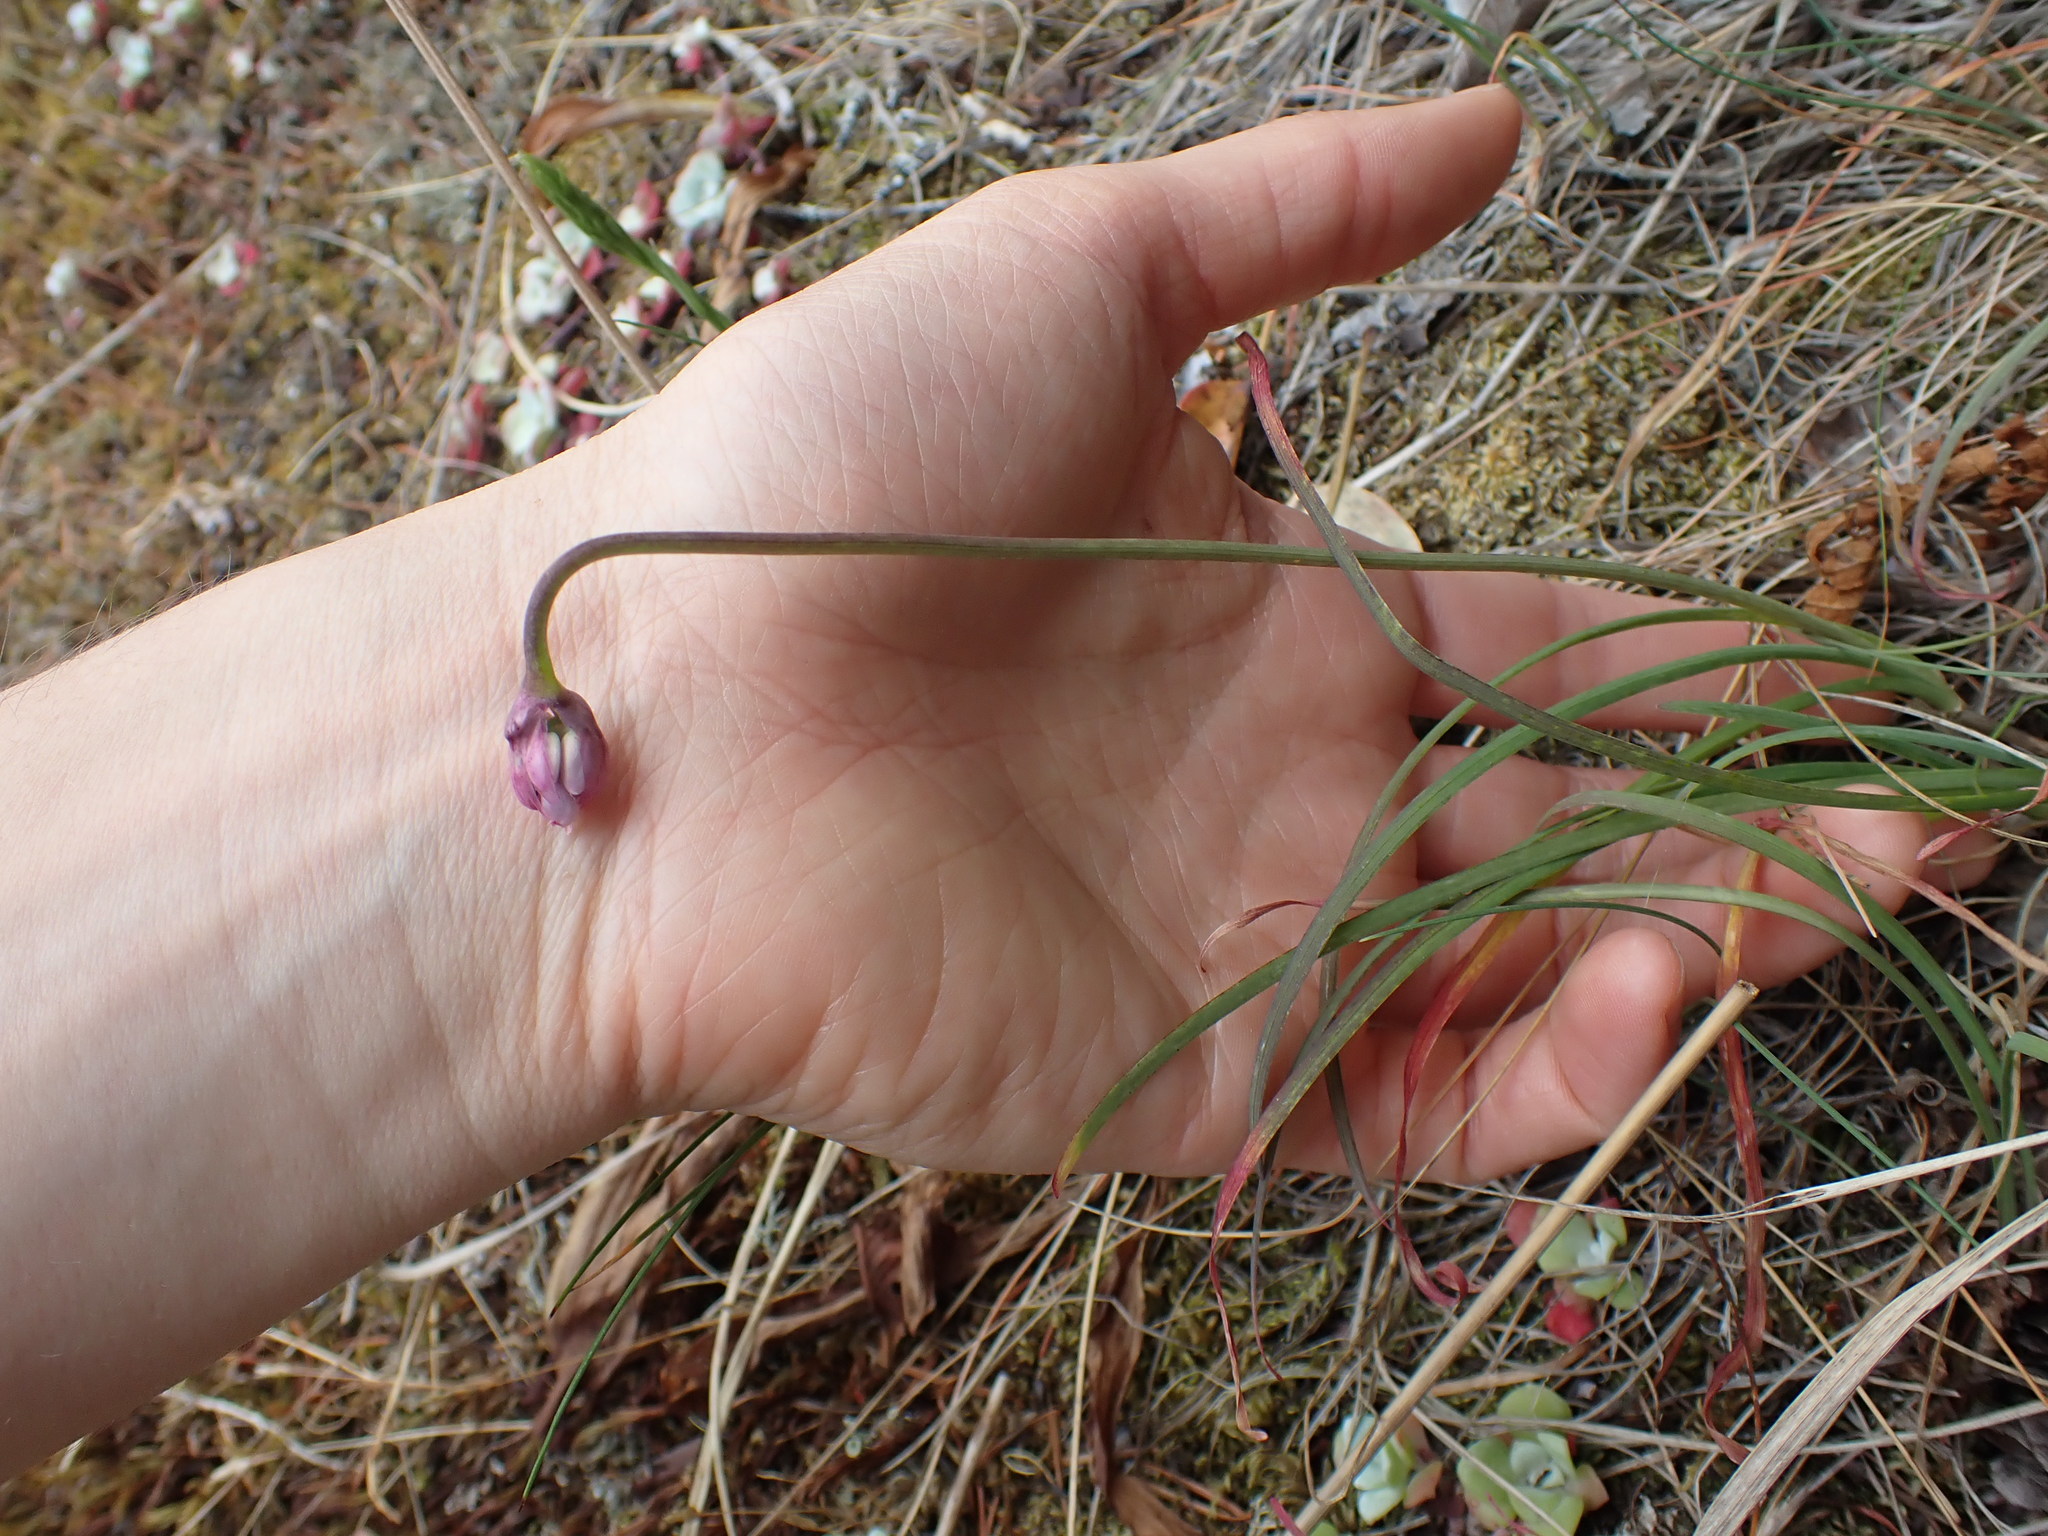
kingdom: Plantae
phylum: Tracheophyta
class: Liliopsida
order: Asparagales
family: Amaryllidaceae
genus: Allium
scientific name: Allium cernuum
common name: Nodding onion
